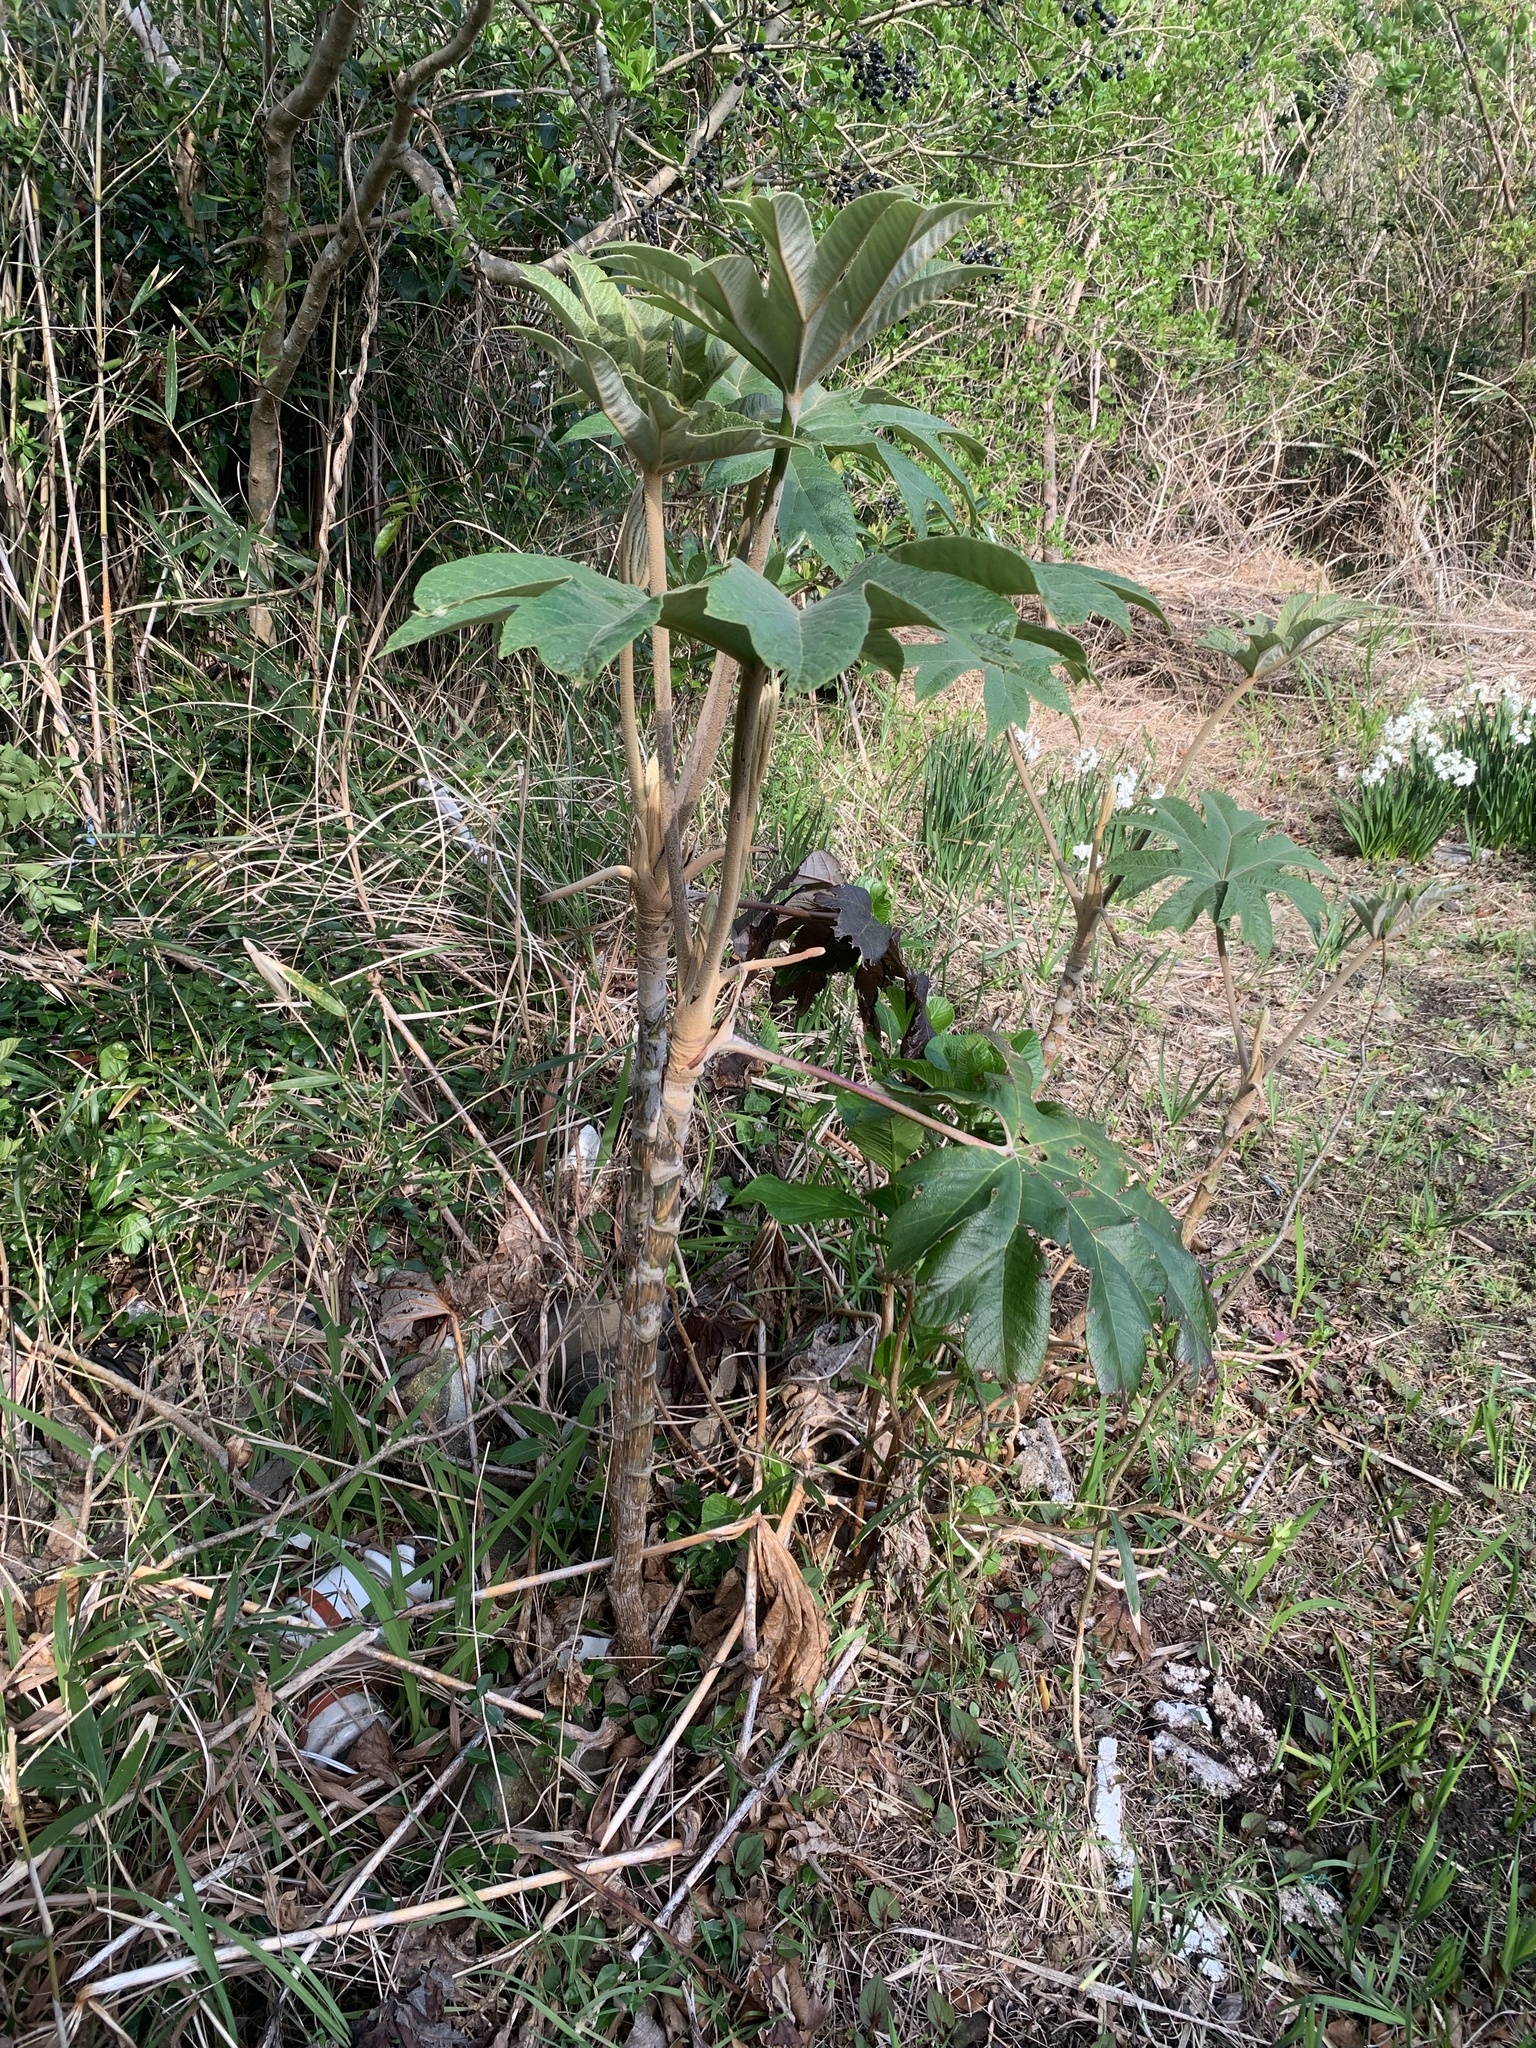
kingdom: Plantae
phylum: Tracheophyta
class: Magnoliopsida
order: Apiales
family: Araliaceae
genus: Tetrapanax
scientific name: Tetrapanax papyrifer
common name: Rice-paper plant
